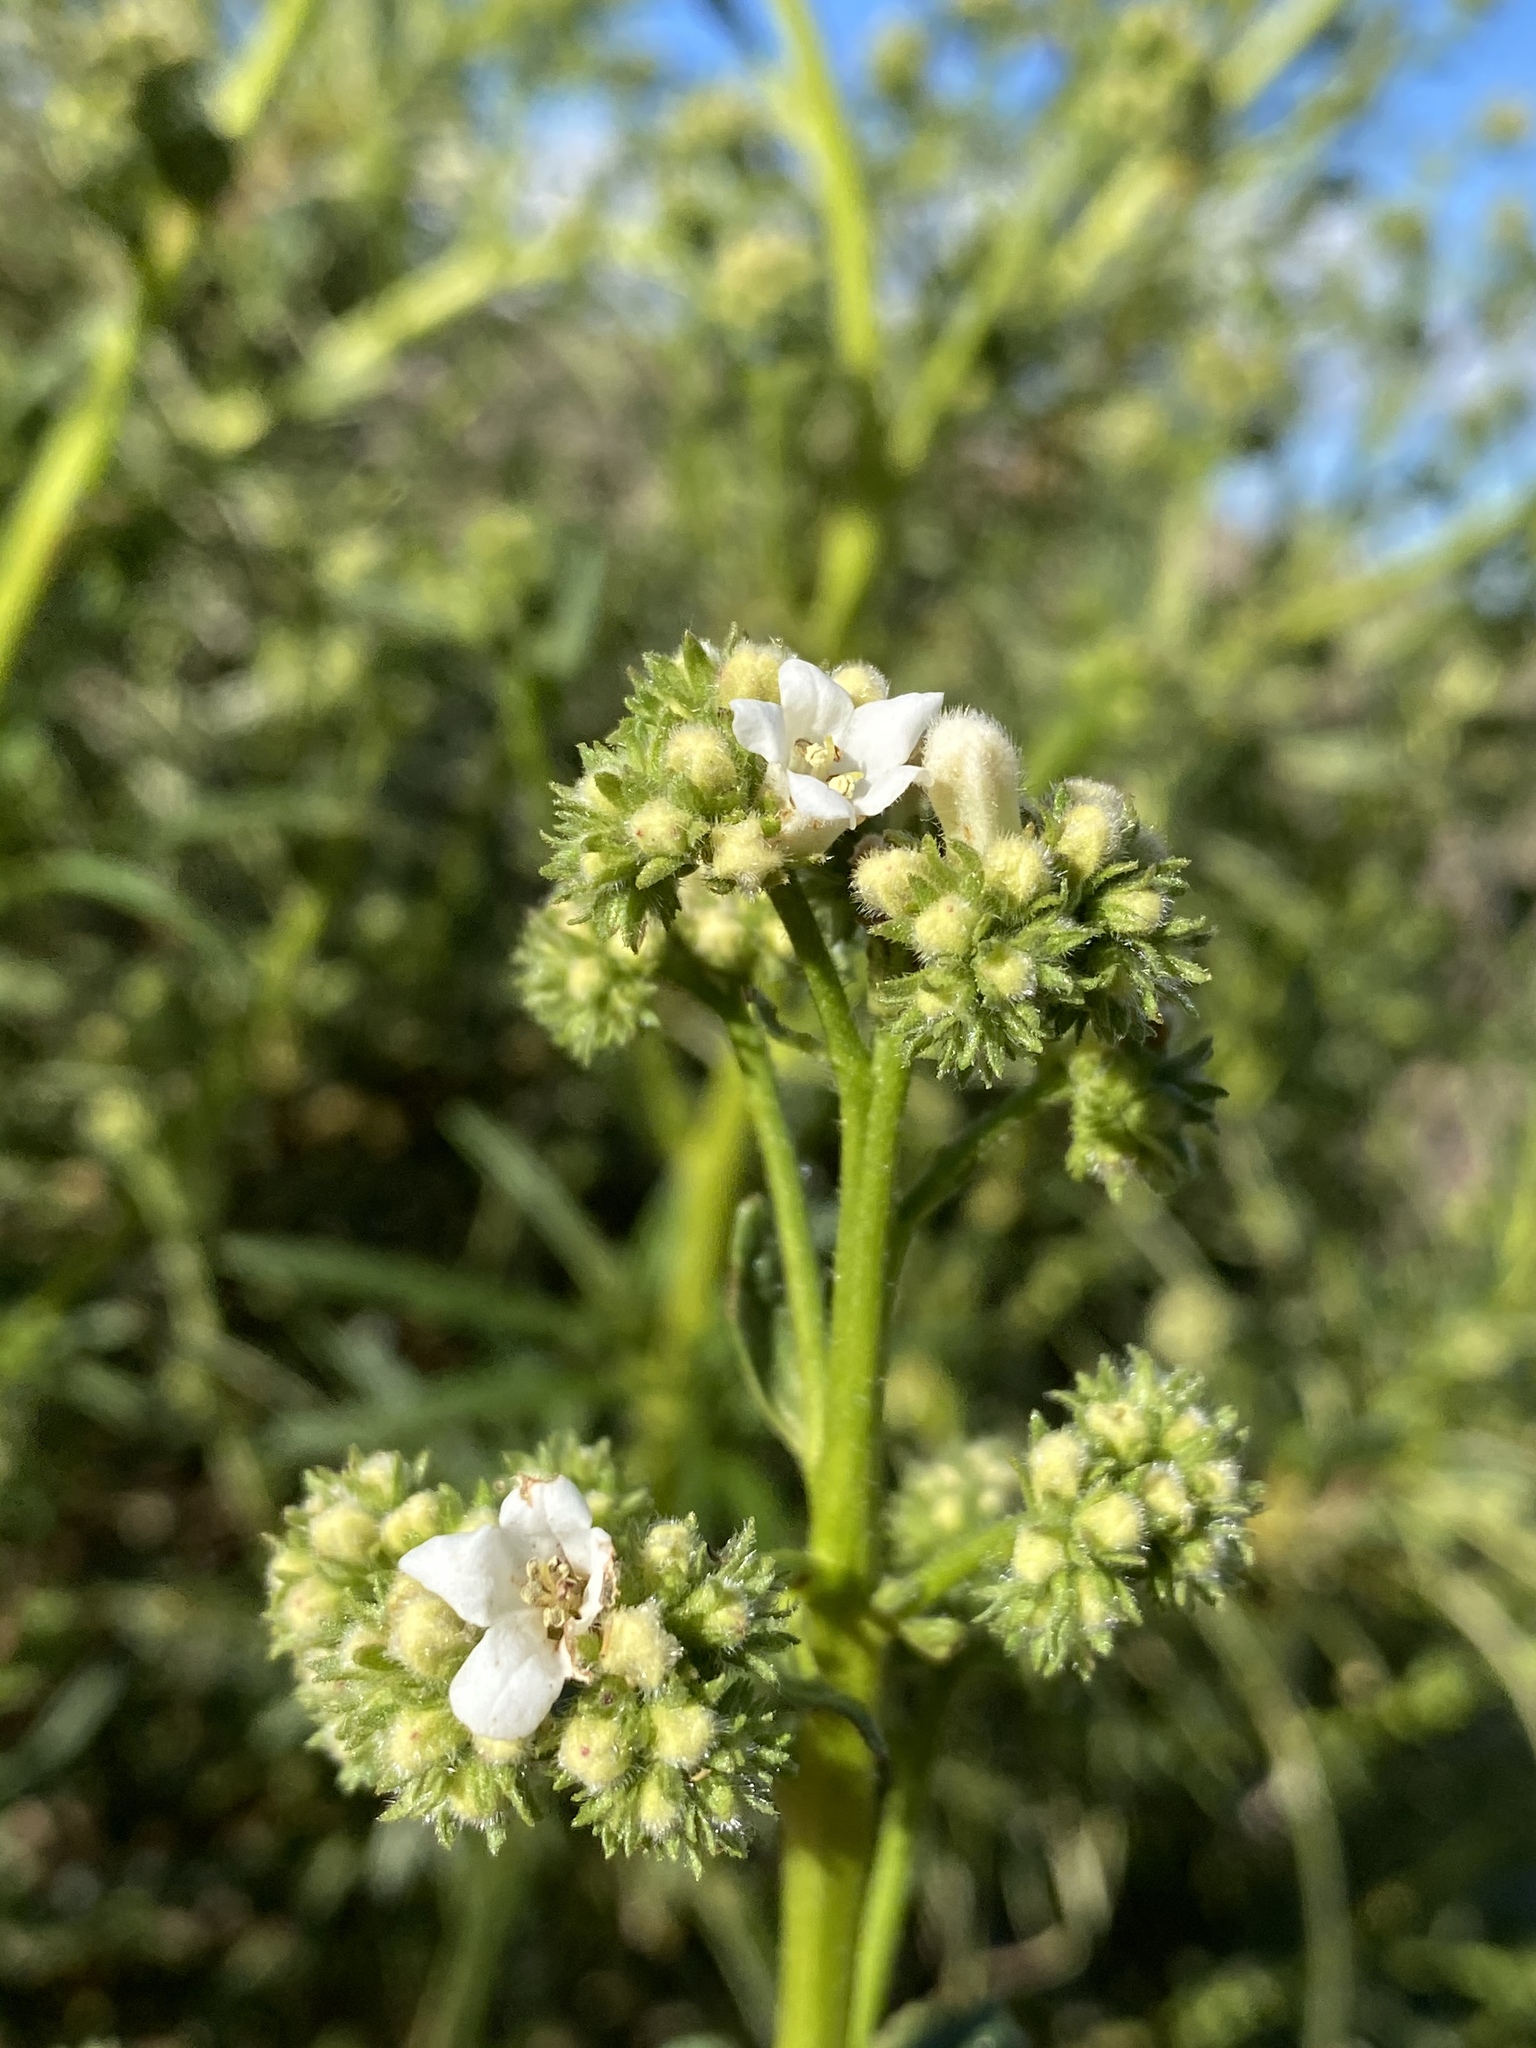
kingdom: Plantae
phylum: Tracheophyta
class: Magnoliopsida
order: Boraginales
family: Namaceae
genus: Eriodictyon
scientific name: Eriodictyon angustifolium
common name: Narrow-leaf yerba santa
